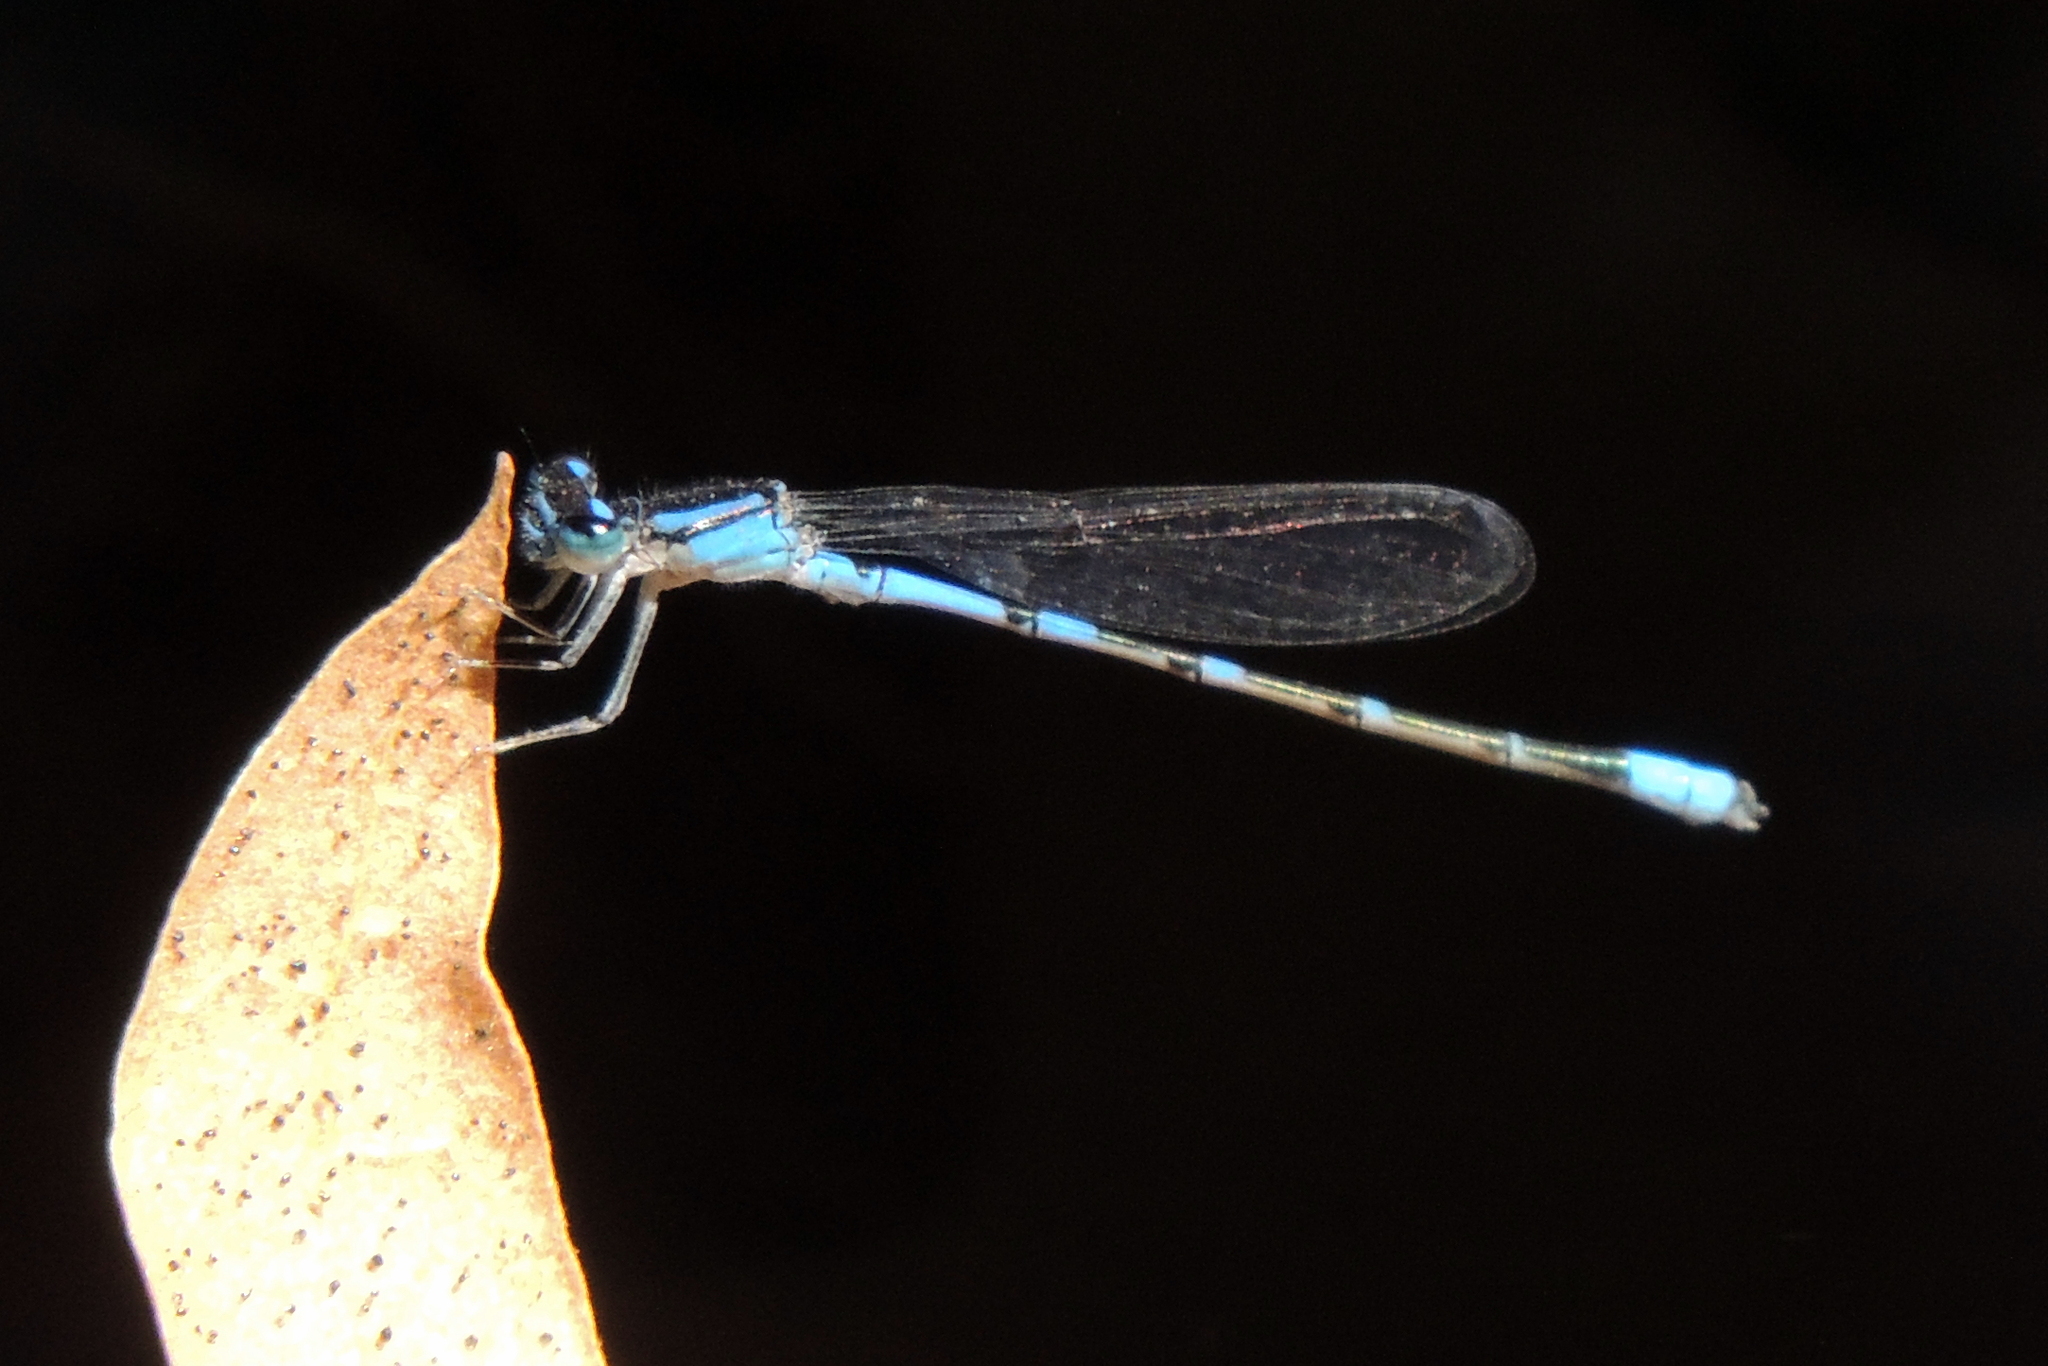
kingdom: Animalia
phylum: Arthropoda
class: Insecta
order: Odonata
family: Coenagrionidae
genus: Enallagma
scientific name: Enallagma praevarum
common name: Arroyo bluet
